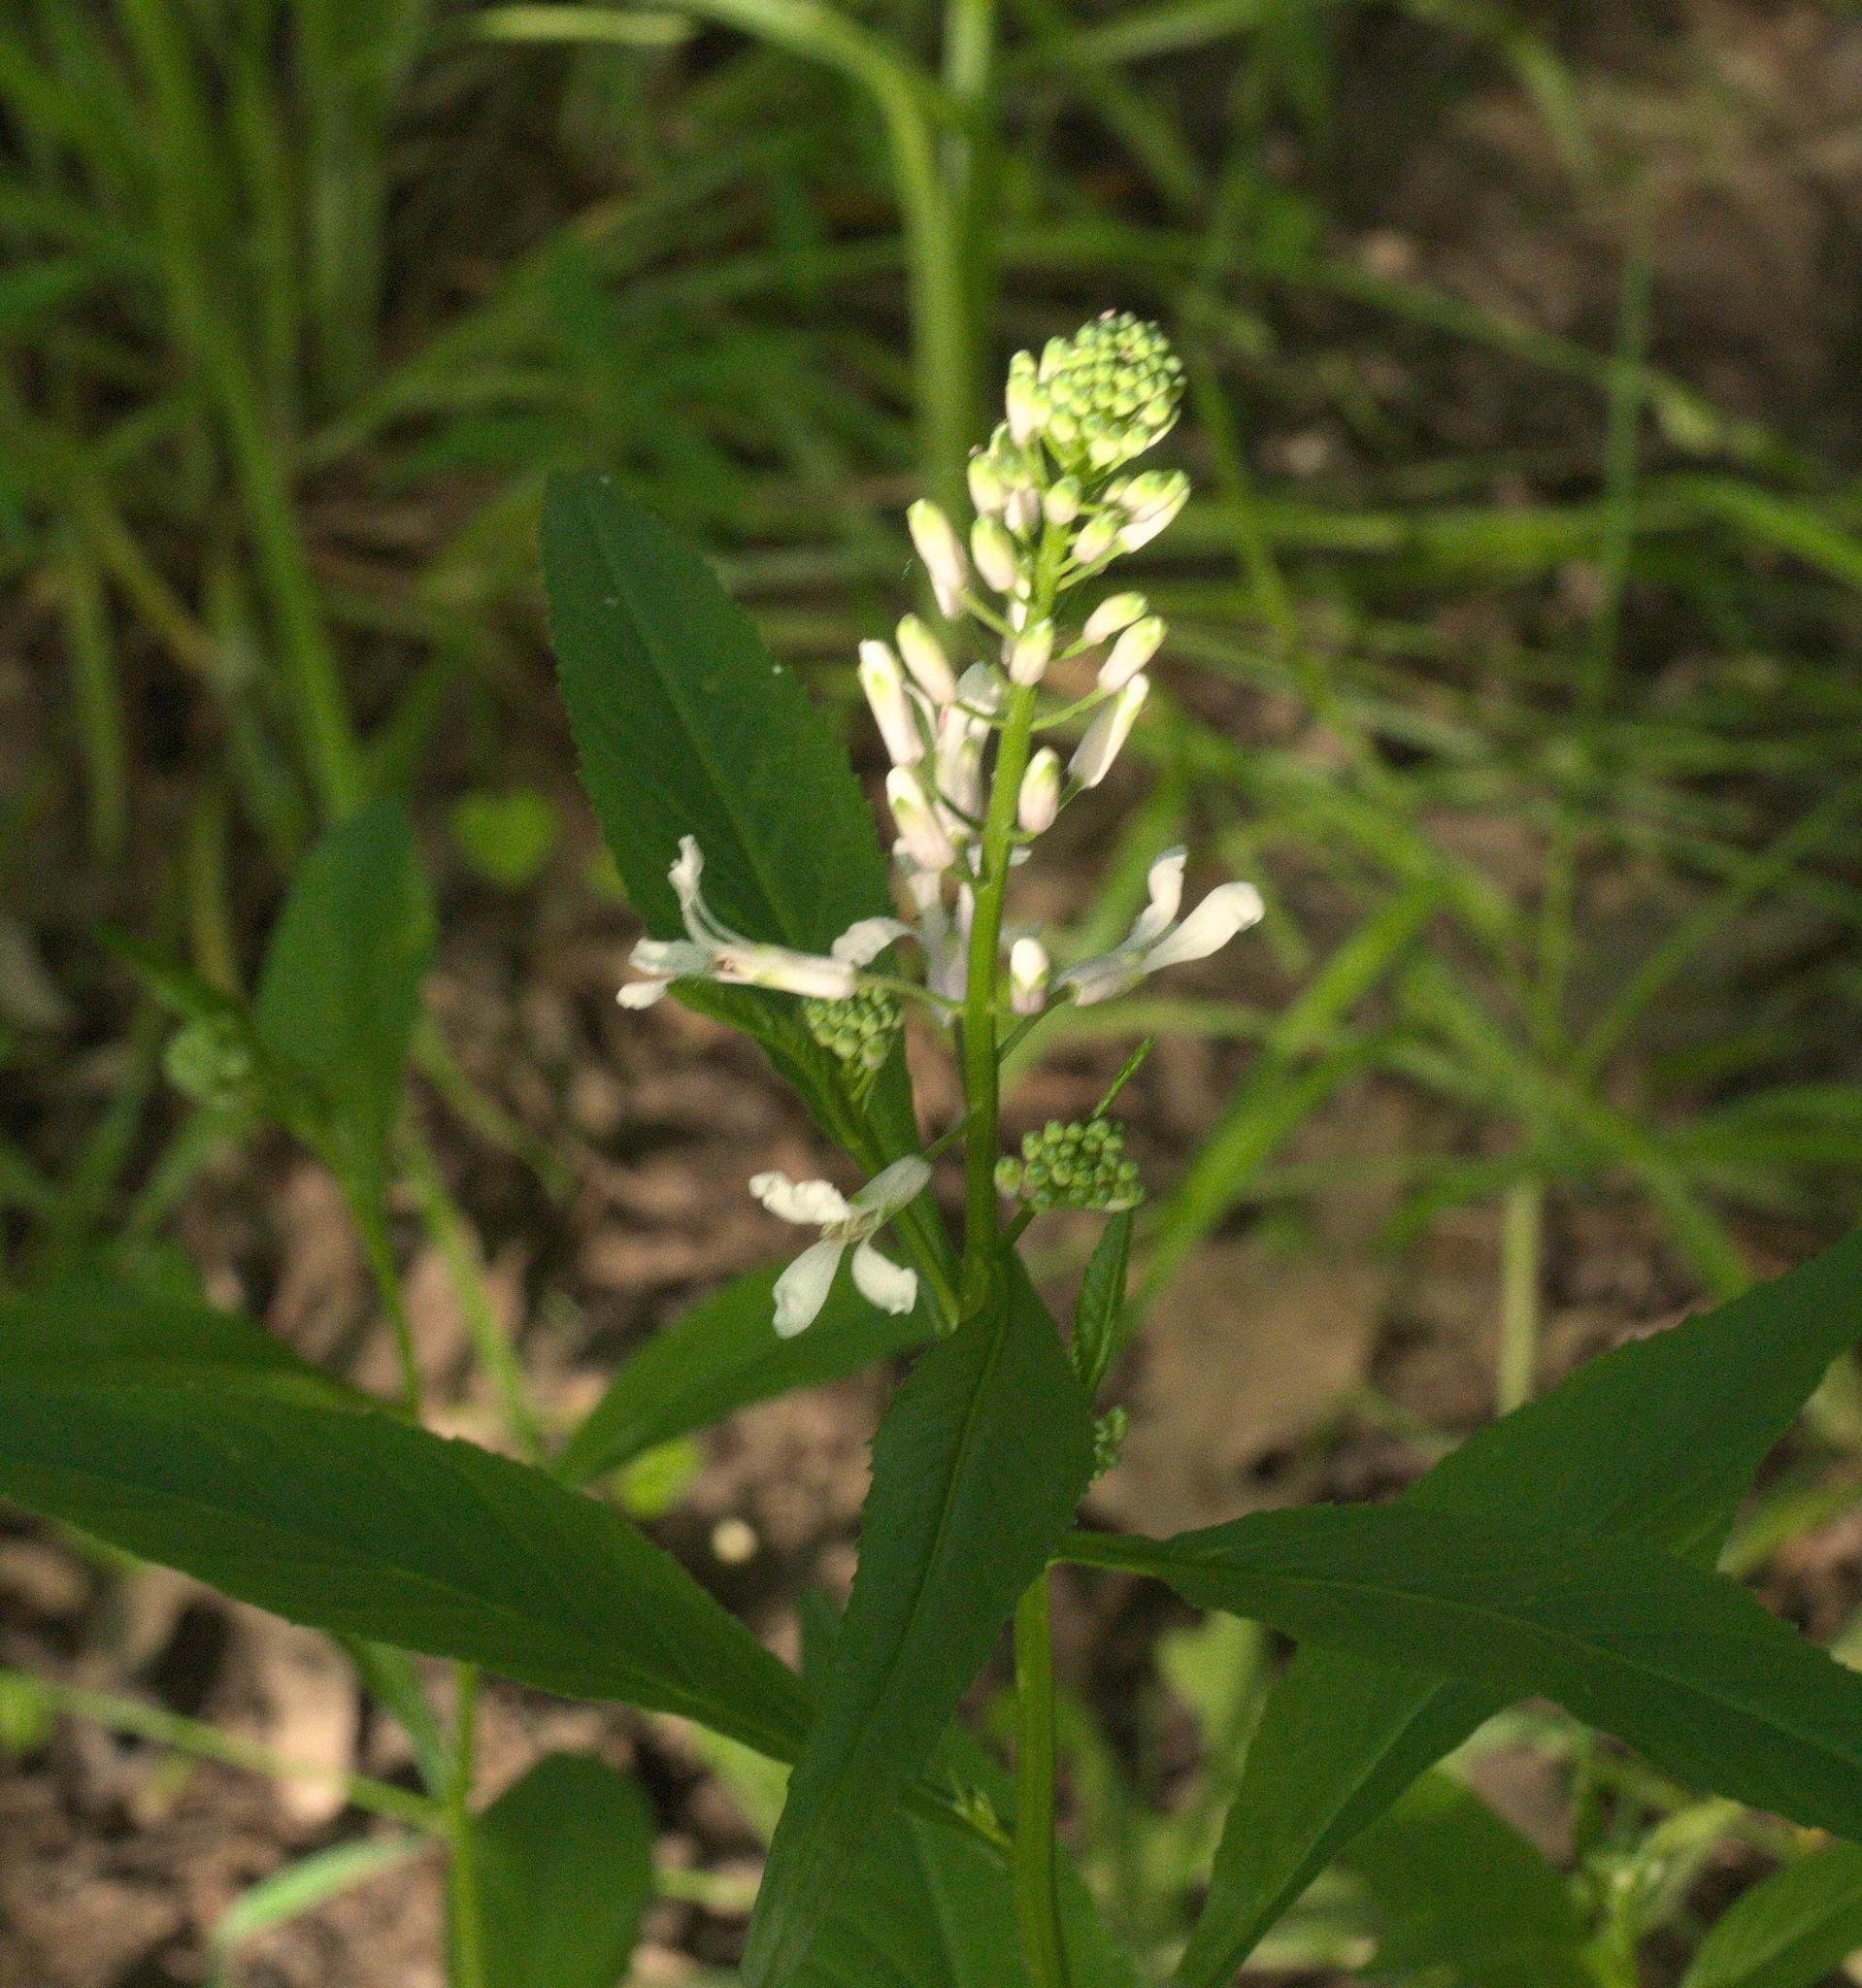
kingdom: Plantae
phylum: Tracheophyta
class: Magnoliopsida
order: Brassicales
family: Brassicaceae
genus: Iodanthus
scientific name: Iodanthus pinnatifidus
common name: Violet rocket
